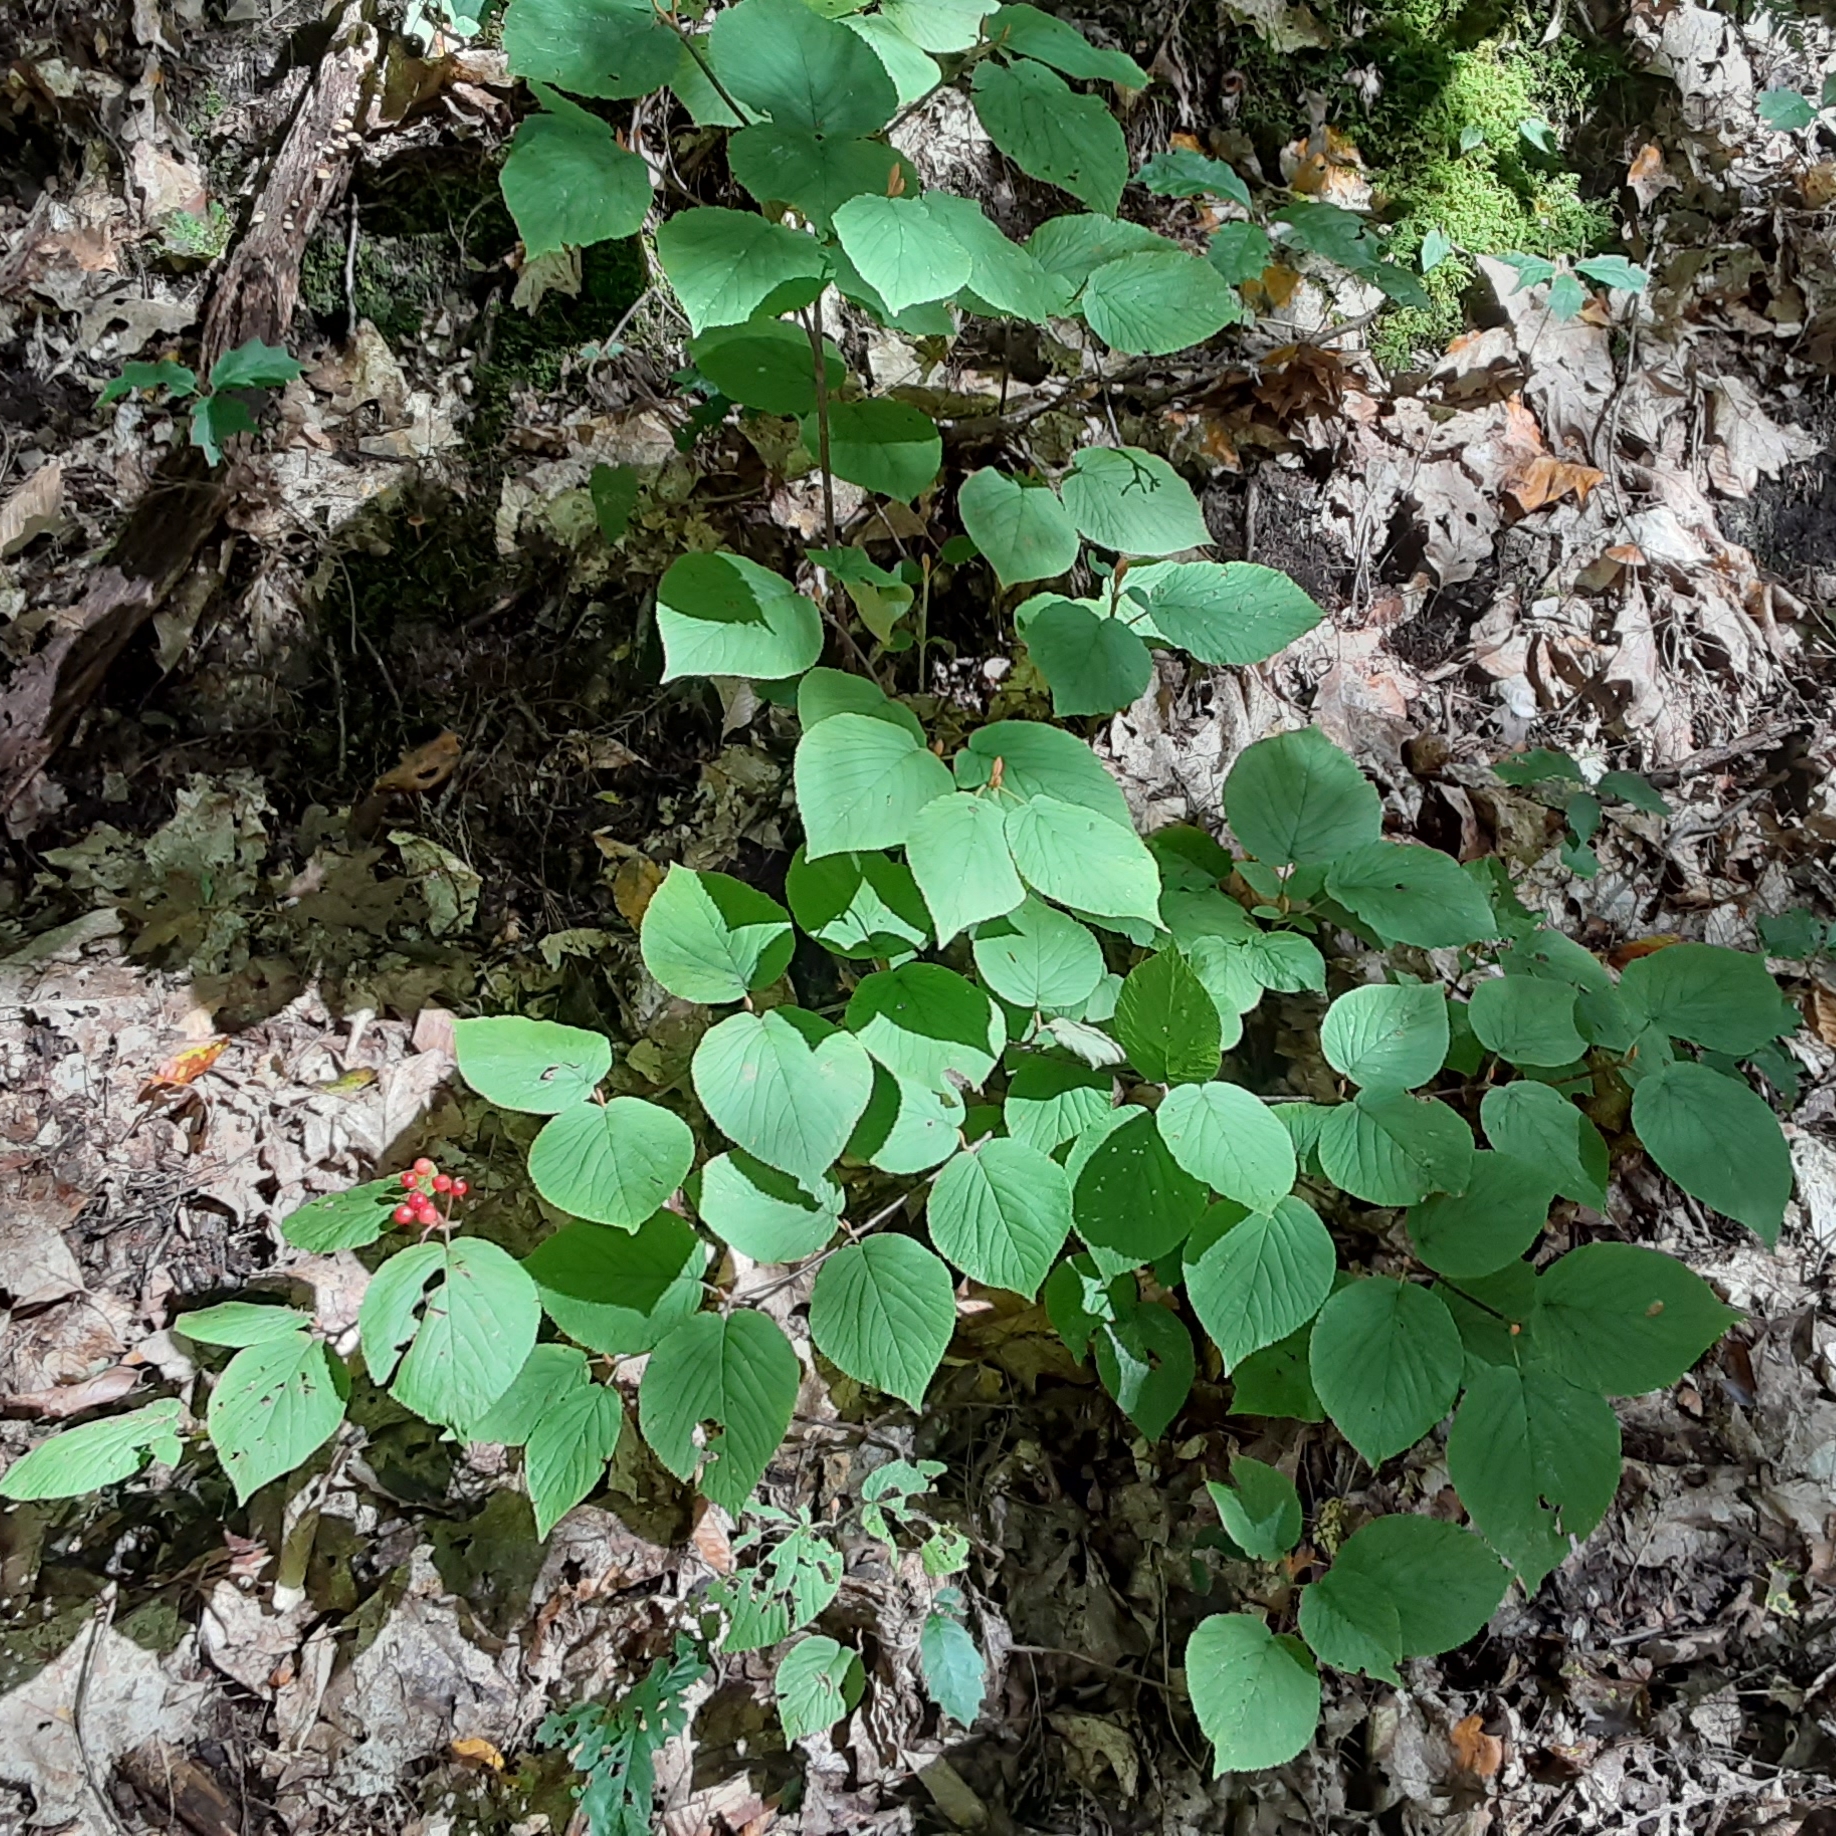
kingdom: Plantae
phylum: Tracheophyta
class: Magnoliopsida
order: Dipsacales
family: Viburnaceae
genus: Viburnum
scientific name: Viburnum lantanoides
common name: Hobblebush
